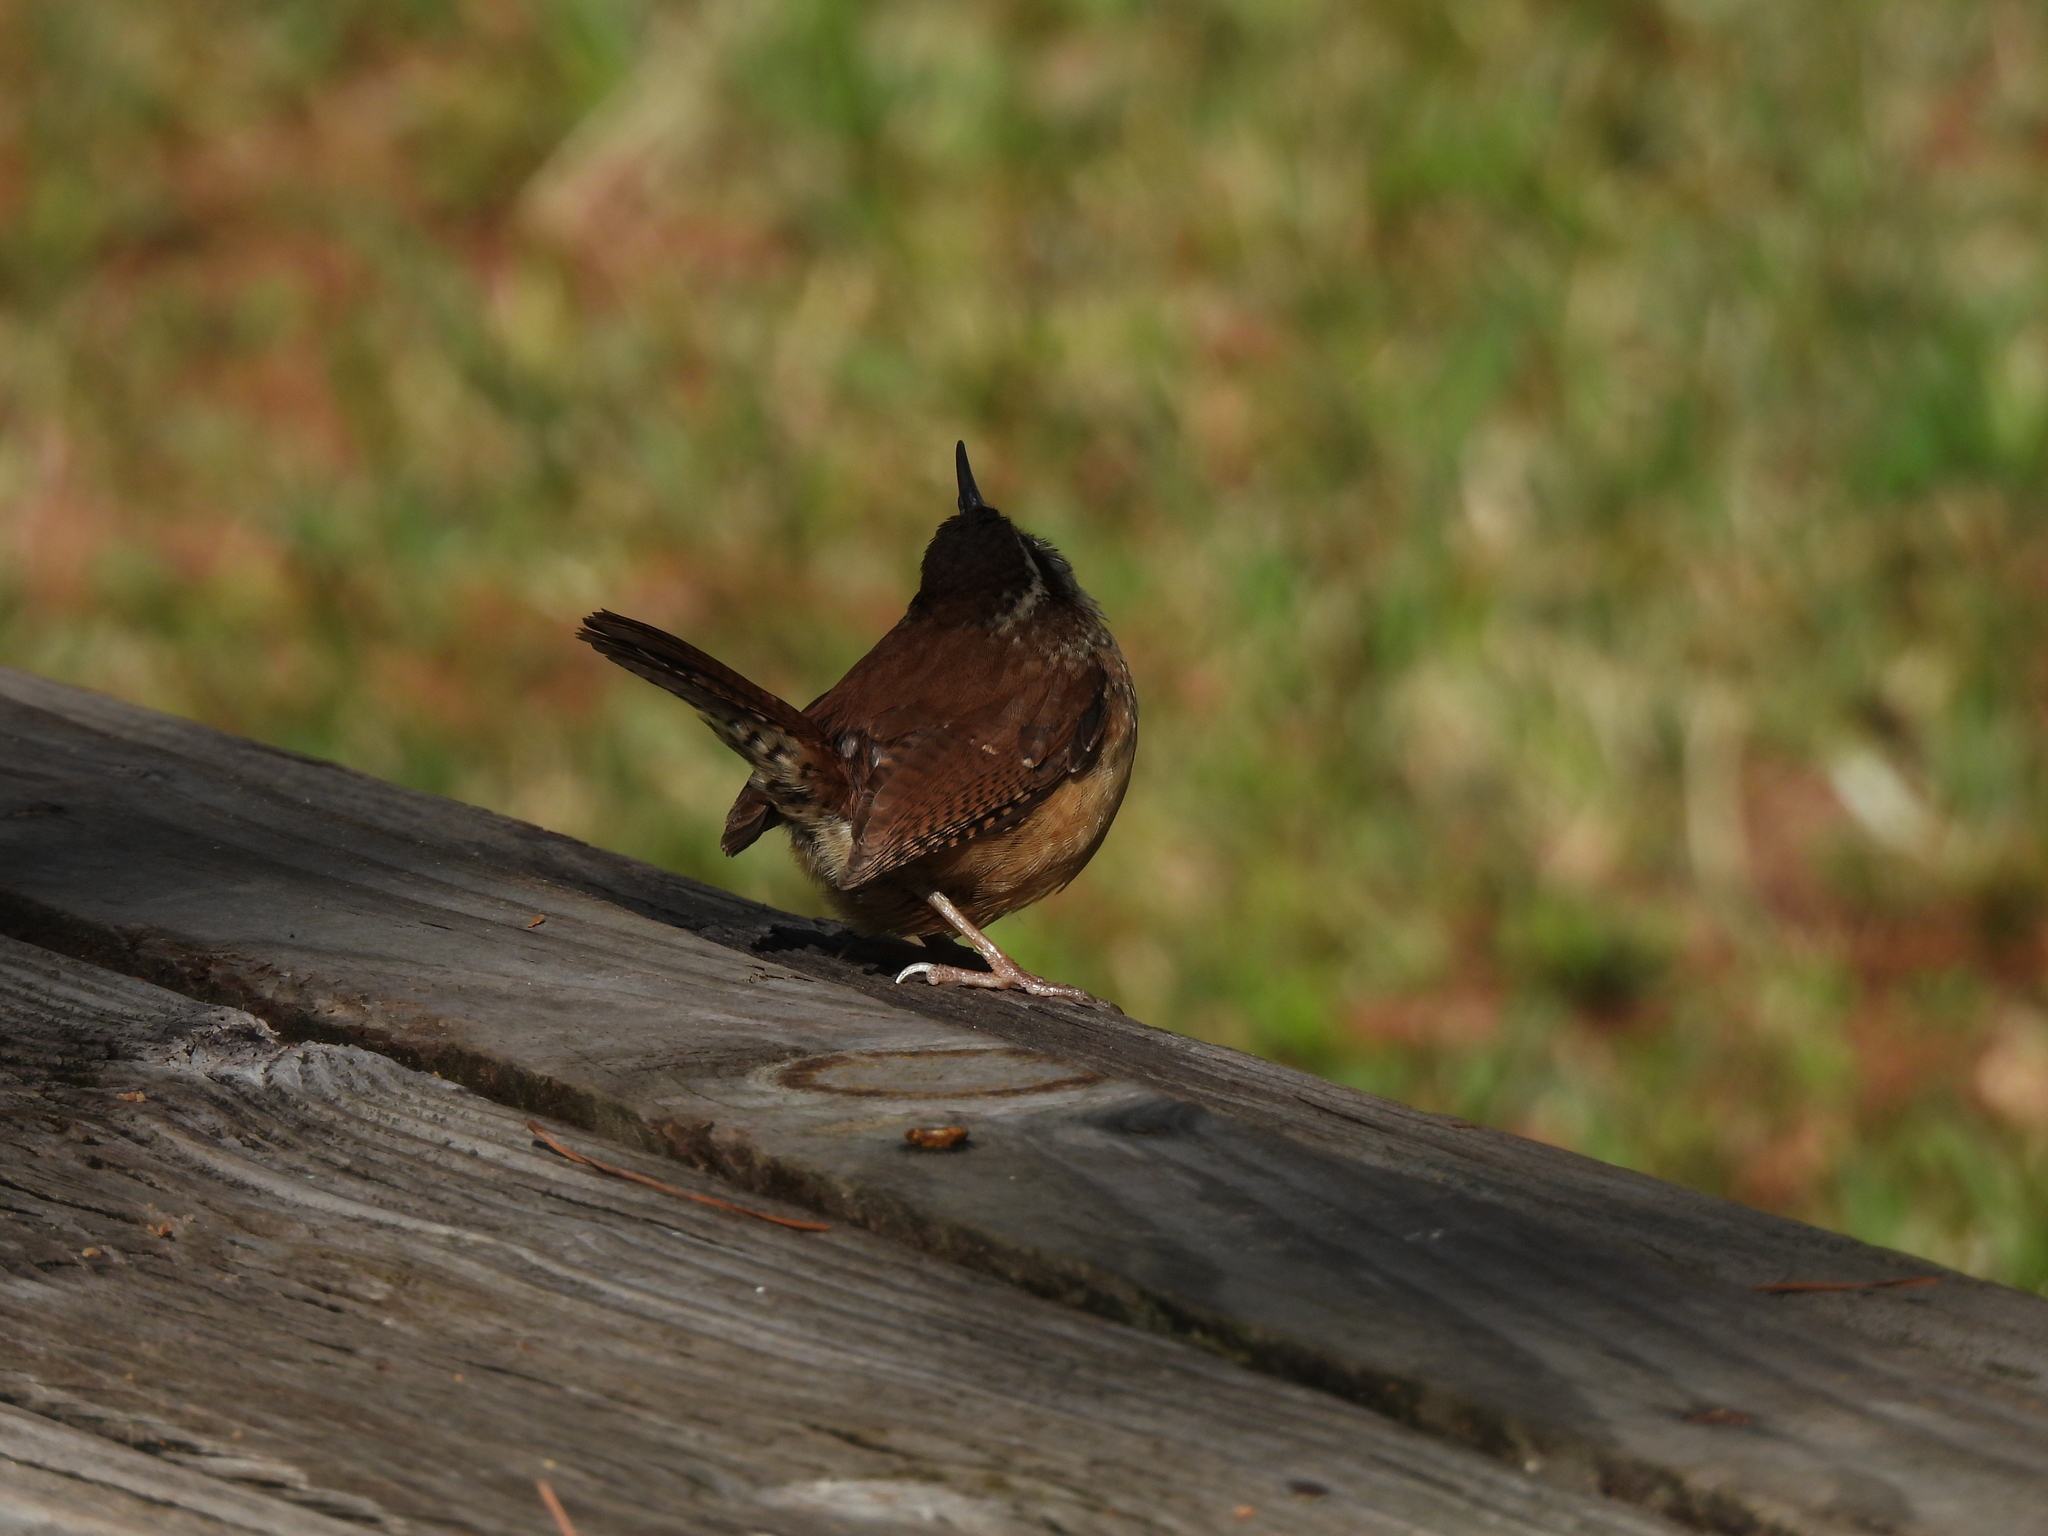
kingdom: Animalia
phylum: Chordata
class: Aves
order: Passeriformes
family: Troglodytidae
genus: Thryothorus
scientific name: Thryothorus ludovicianus
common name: Carolina wren
